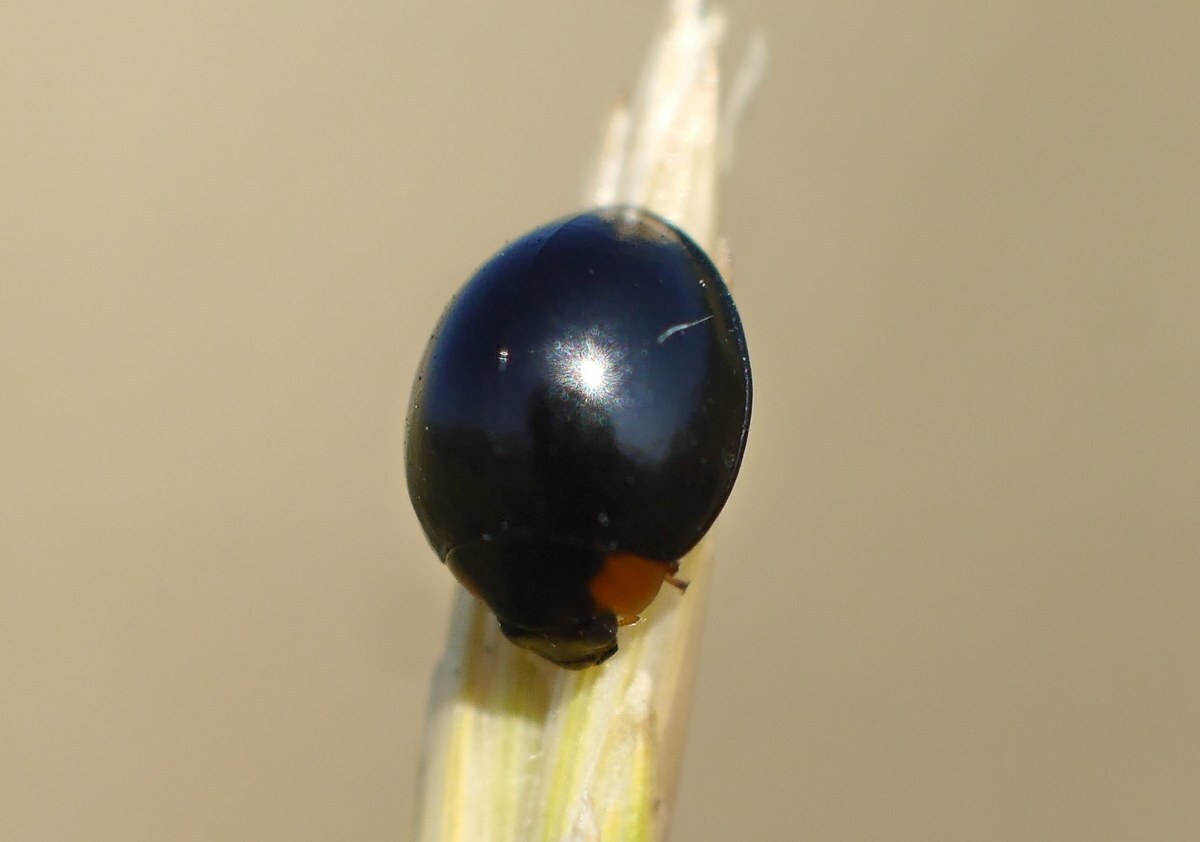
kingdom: Animalia
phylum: Arthropoda
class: Insecta
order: Coleoptera
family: Coccinellidae
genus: Parexochomus
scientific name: Parexochomus nigromaculatus
